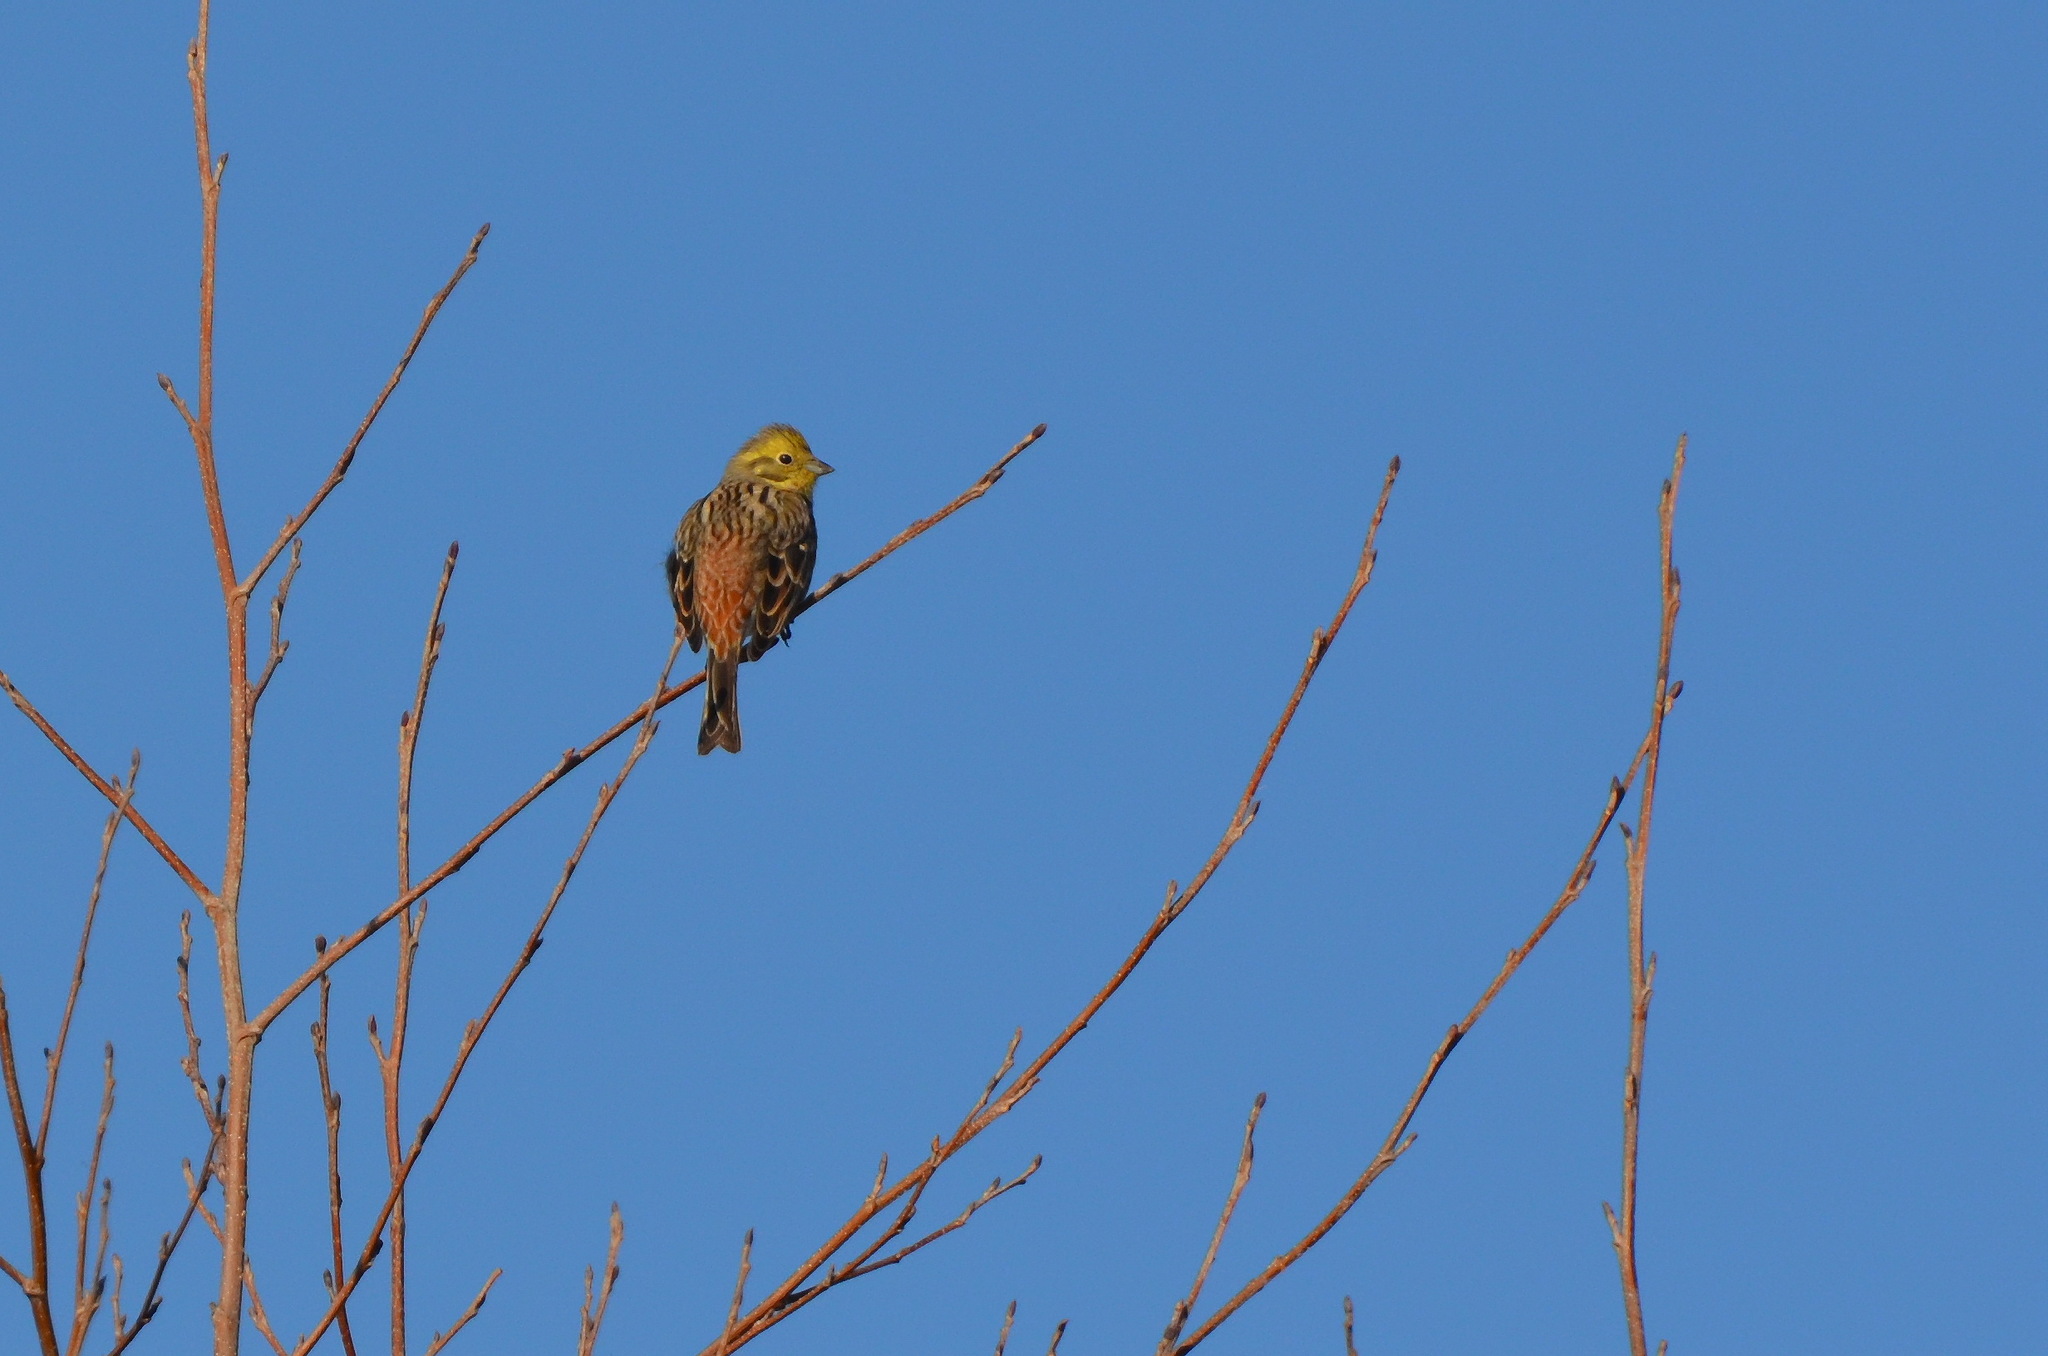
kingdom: Animalia
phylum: Chordata
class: Aves
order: Passeriformes
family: Emberizidae
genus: Emberiza
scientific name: Emberiza citrinella
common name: Yellowhammer
